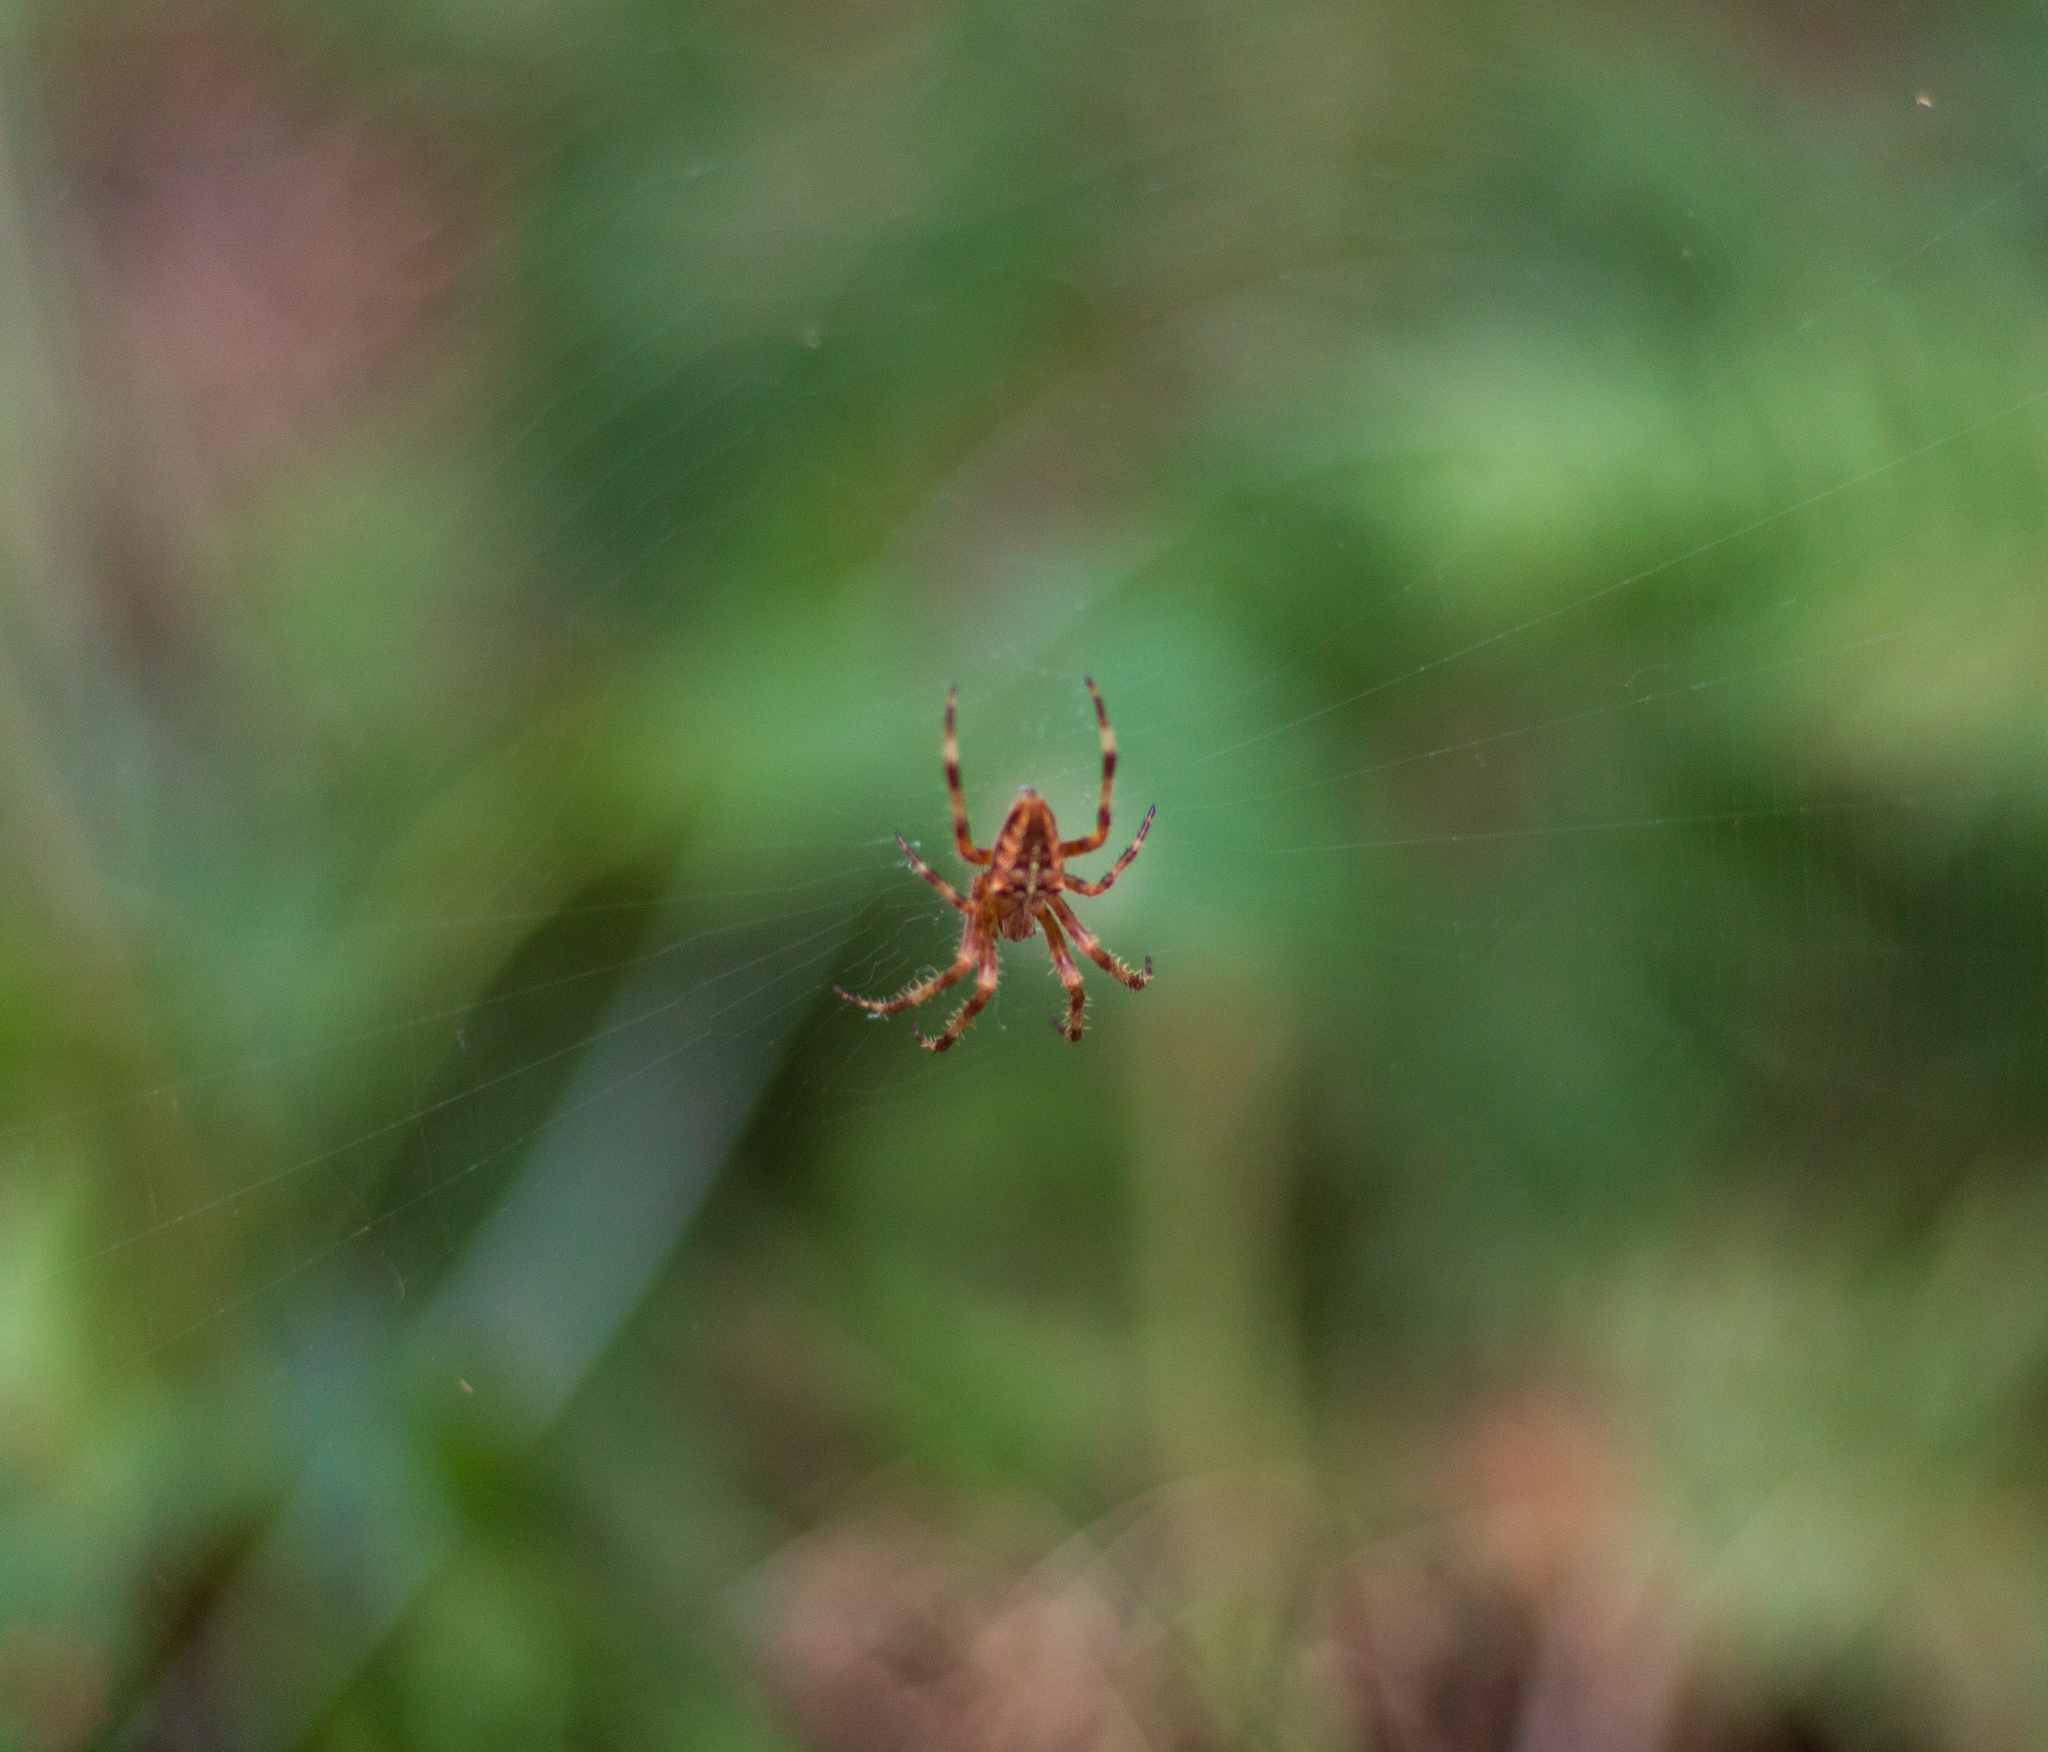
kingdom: Animalia
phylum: Arthropoda
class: Arachnida
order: Araneae
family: Araneidae
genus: Araneus
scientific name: Araneus diadematus
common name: Cross orbweaver
